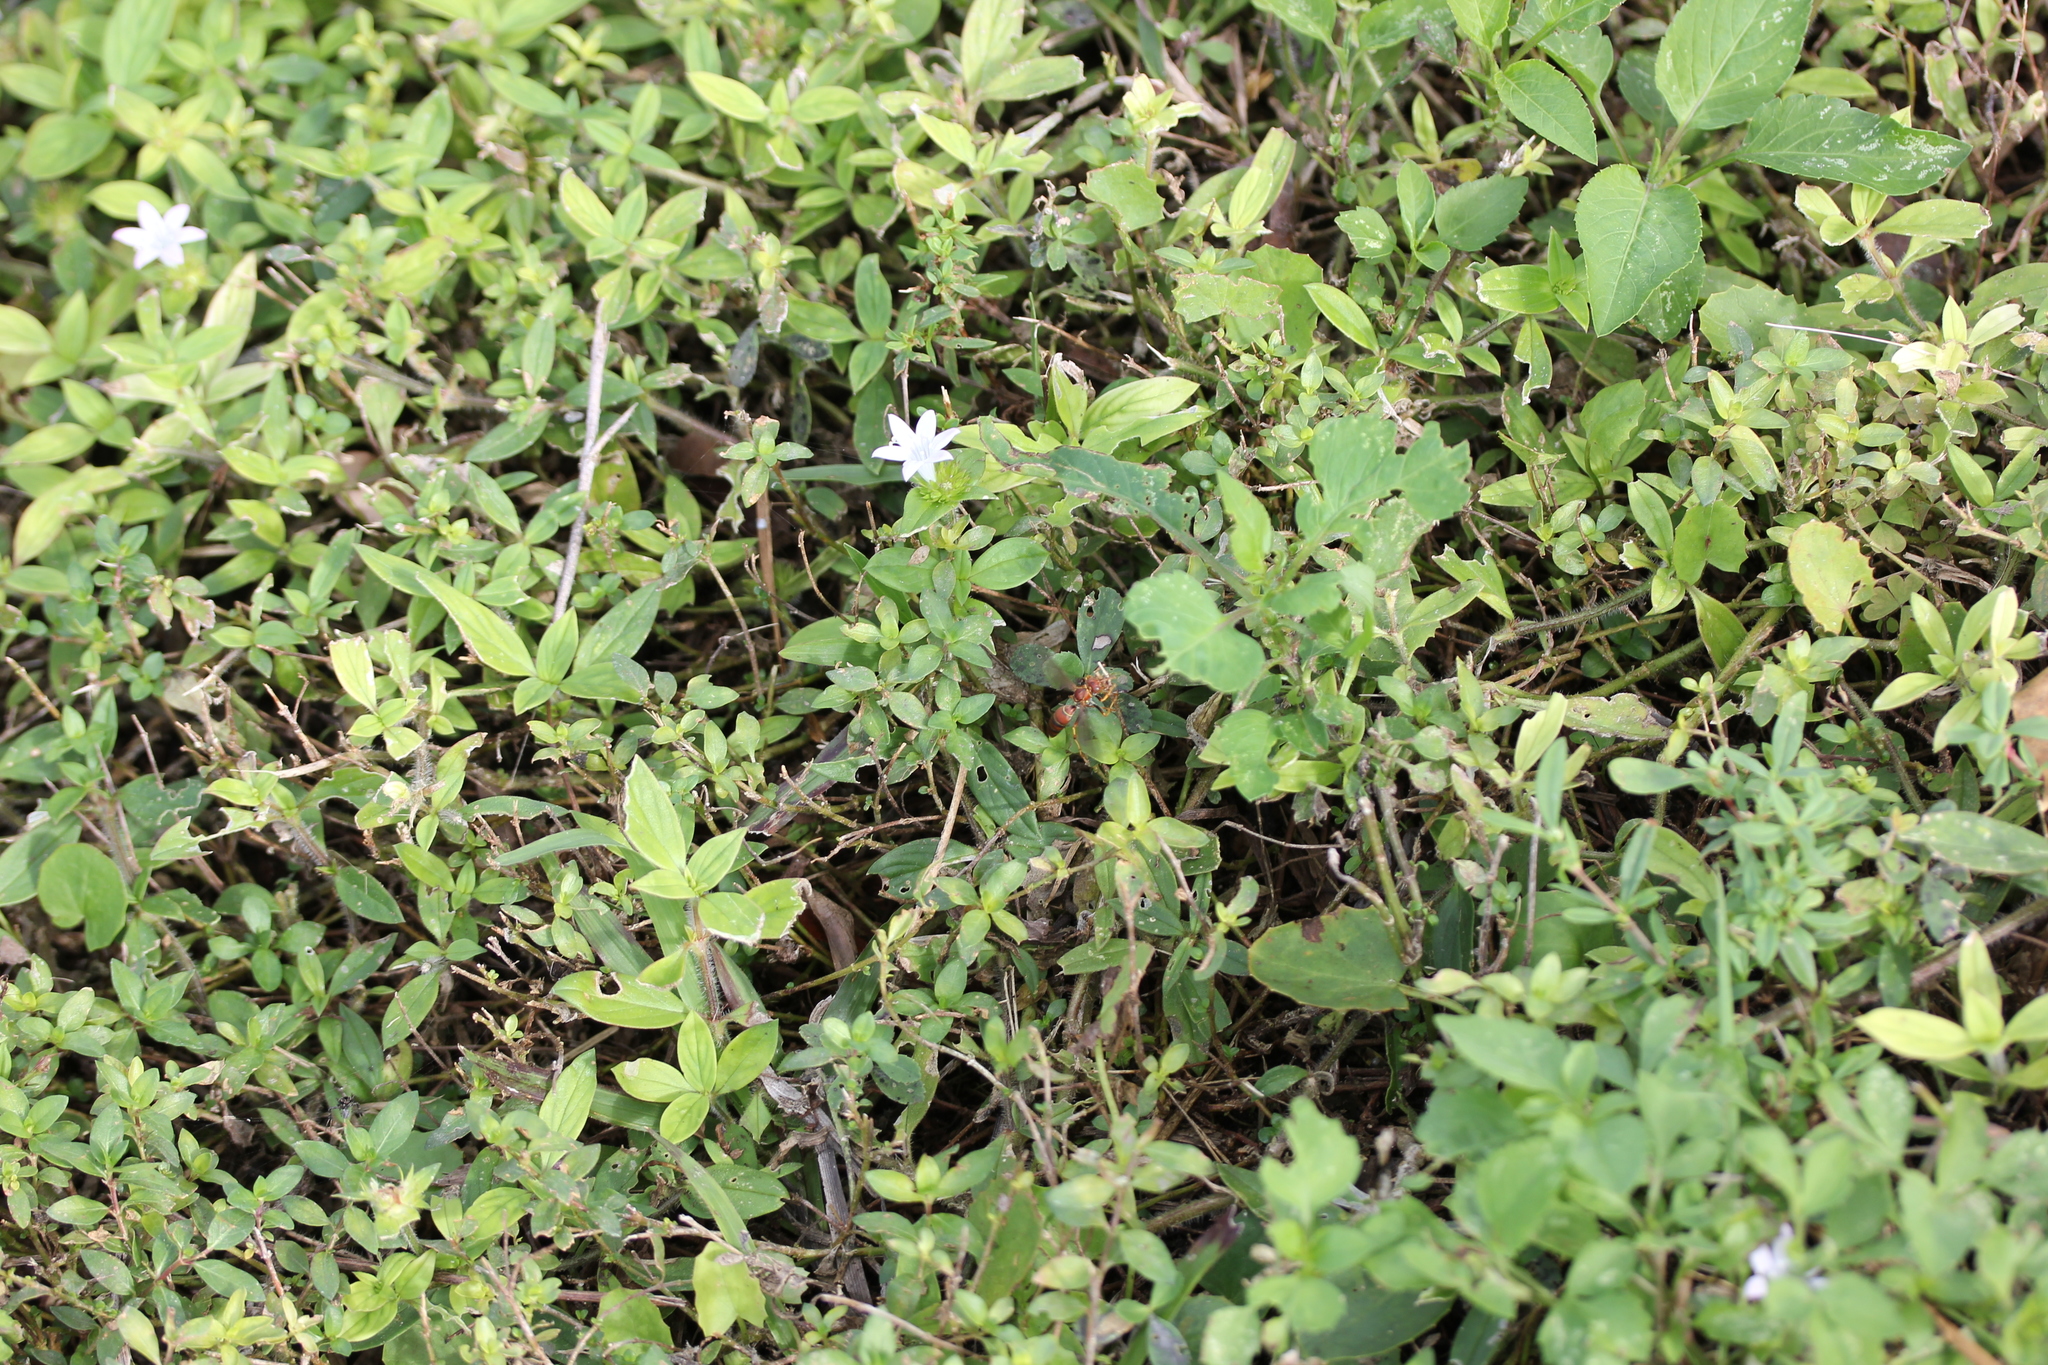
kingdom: Plantae
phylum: Tracheophyta
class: Magnoliopsida
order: Gentianales
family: Rubiaceae
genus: Richardia
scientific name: Richardia grandiflora
